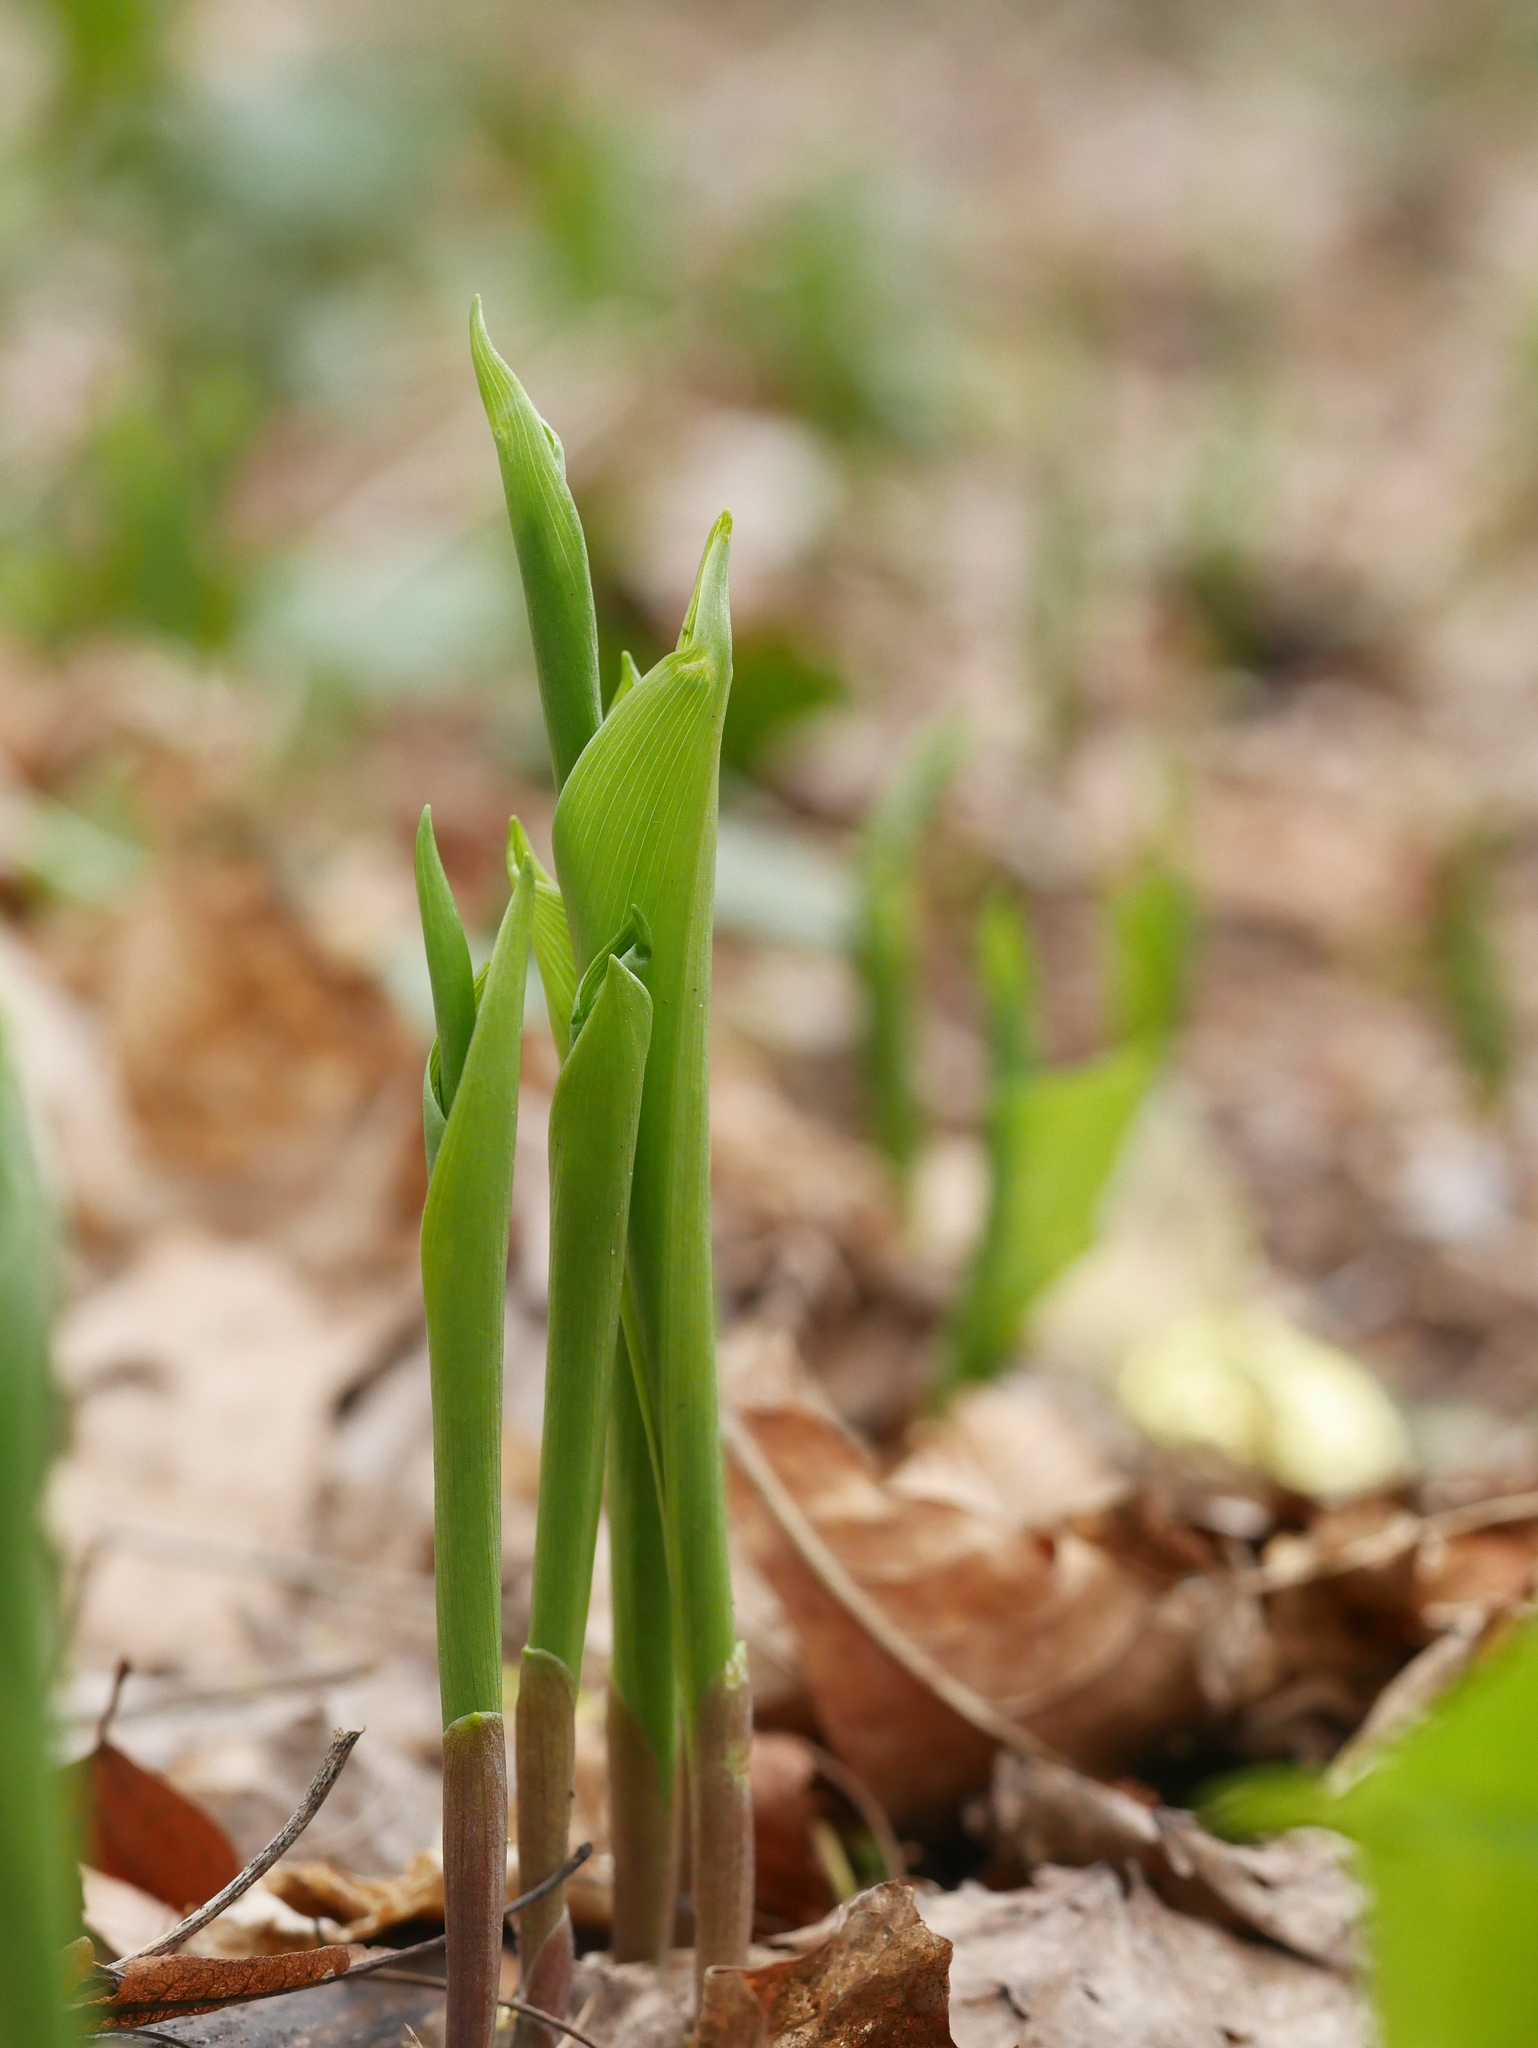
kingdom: Plantae
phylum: Tracheophyta
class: Liliopsida
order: Asparagales
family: Asparagaceae
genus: Convallaria
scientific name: Convallaria majalis
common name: Lily-of-the-valley
